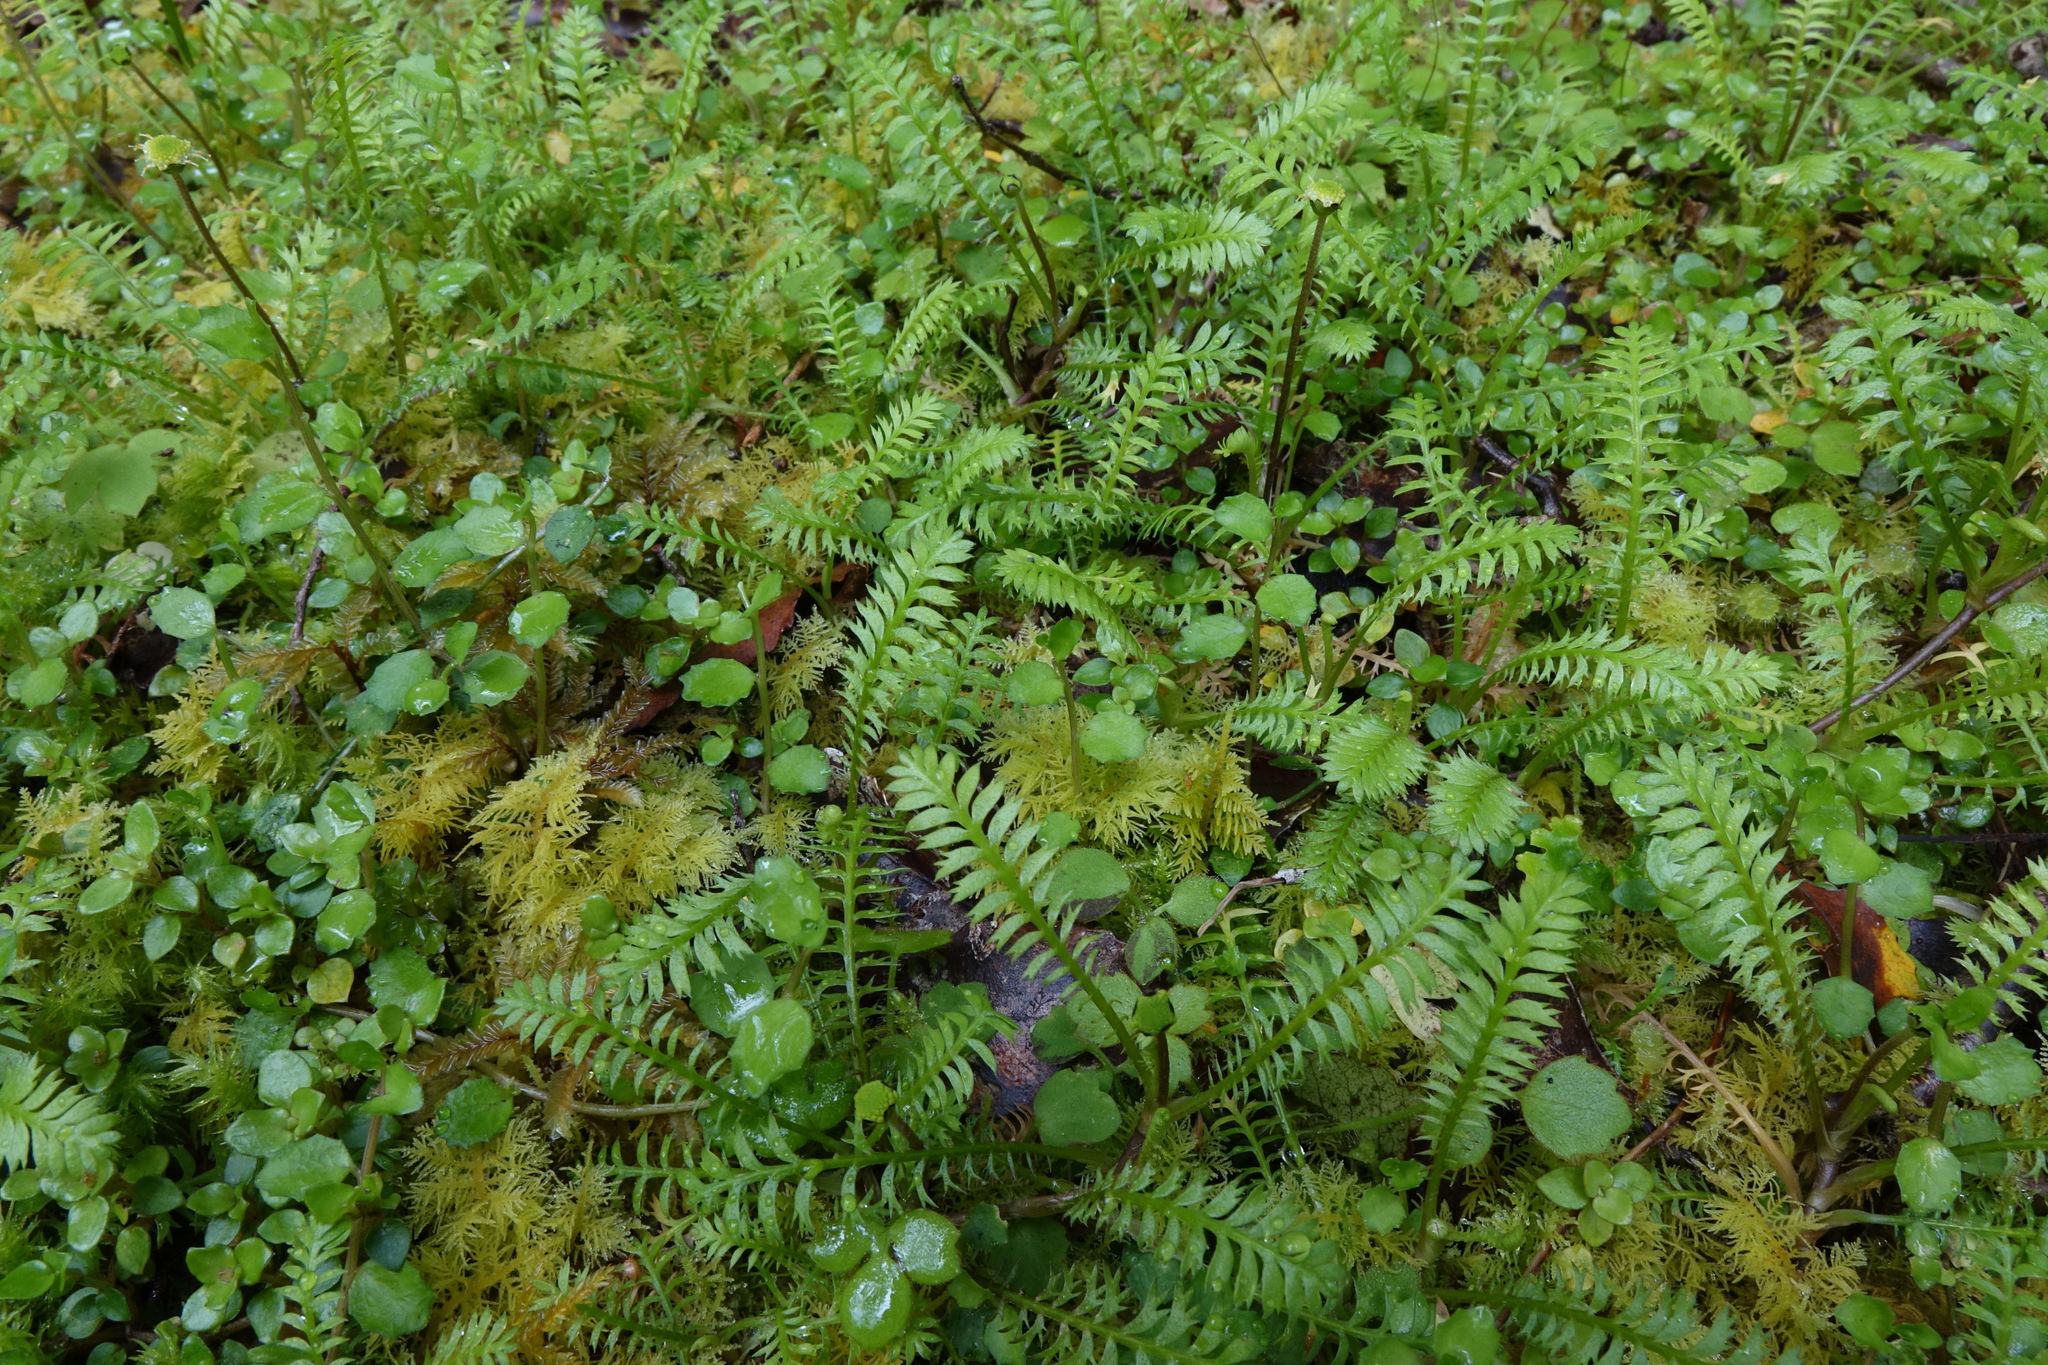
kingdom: Plantae
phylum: Tracheophyta
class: Magnoliopsida
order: Asterales
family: Asteraceae
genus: Leptinella
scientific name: Leptinella squalida
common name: New zealand brass-buttons
